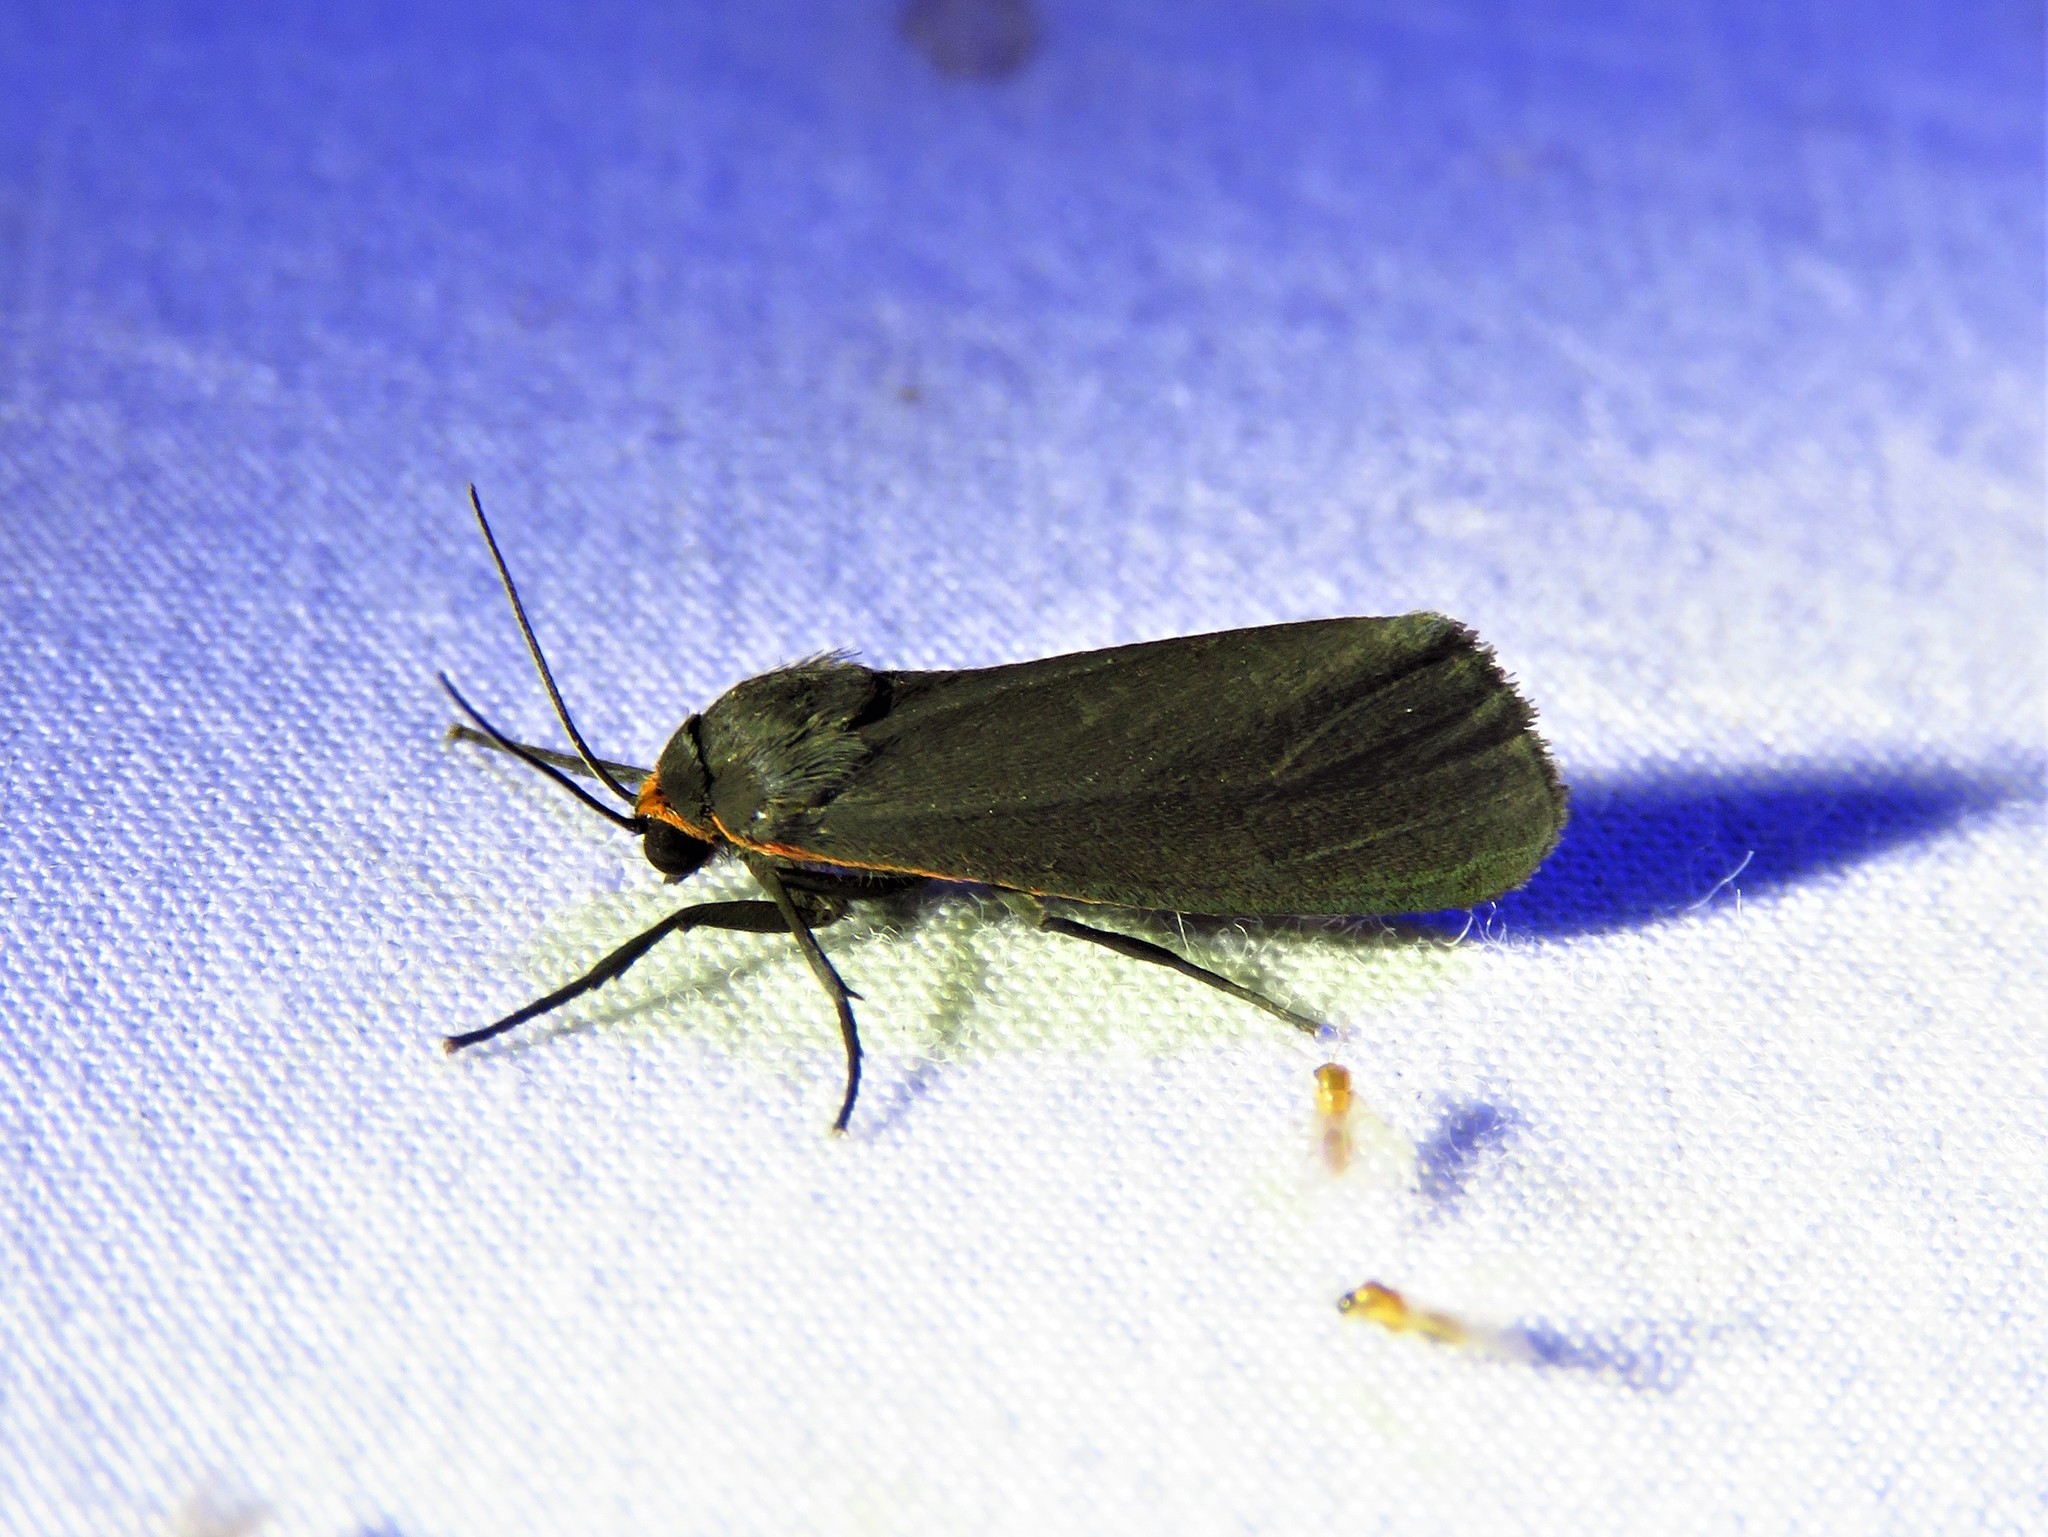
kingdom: Animalia
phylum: Arthropoda
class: Insecta
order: Lepidoptera
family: Erebidae
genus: Virbia
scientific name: Virbia laeta
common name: Joyful holomelina moth
